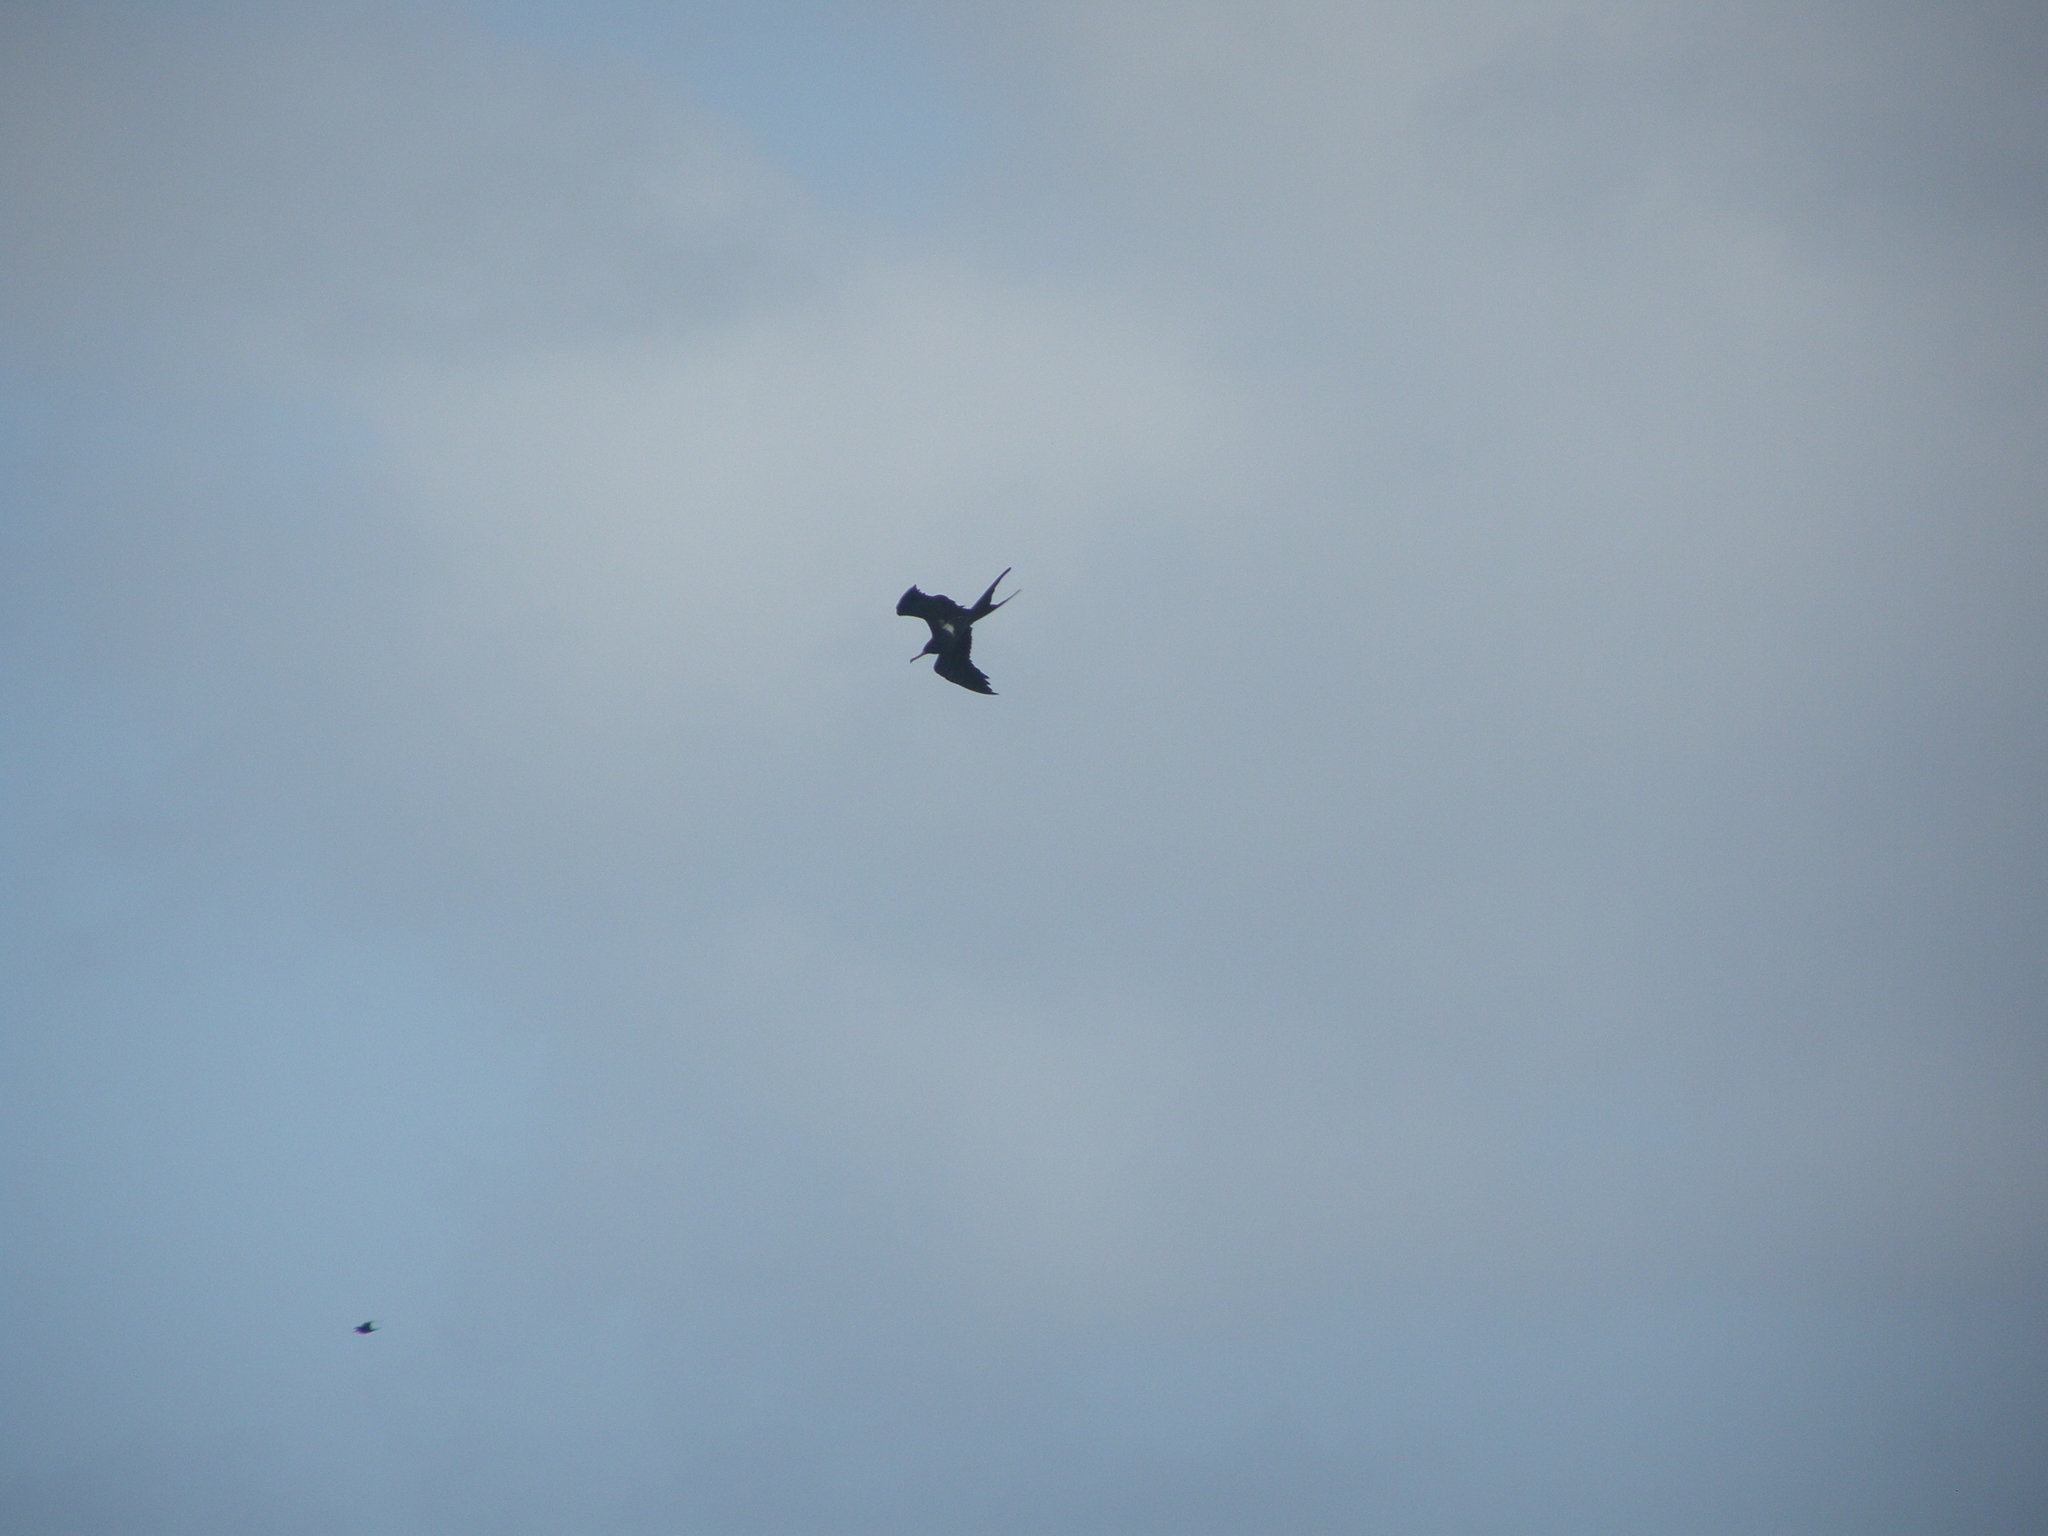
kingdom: Animalia
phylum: Chordata
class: Aves
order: Suliformes
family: Fregatidae
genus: Fregata
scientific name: Fregata ariel
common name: Lesser frigatebird
